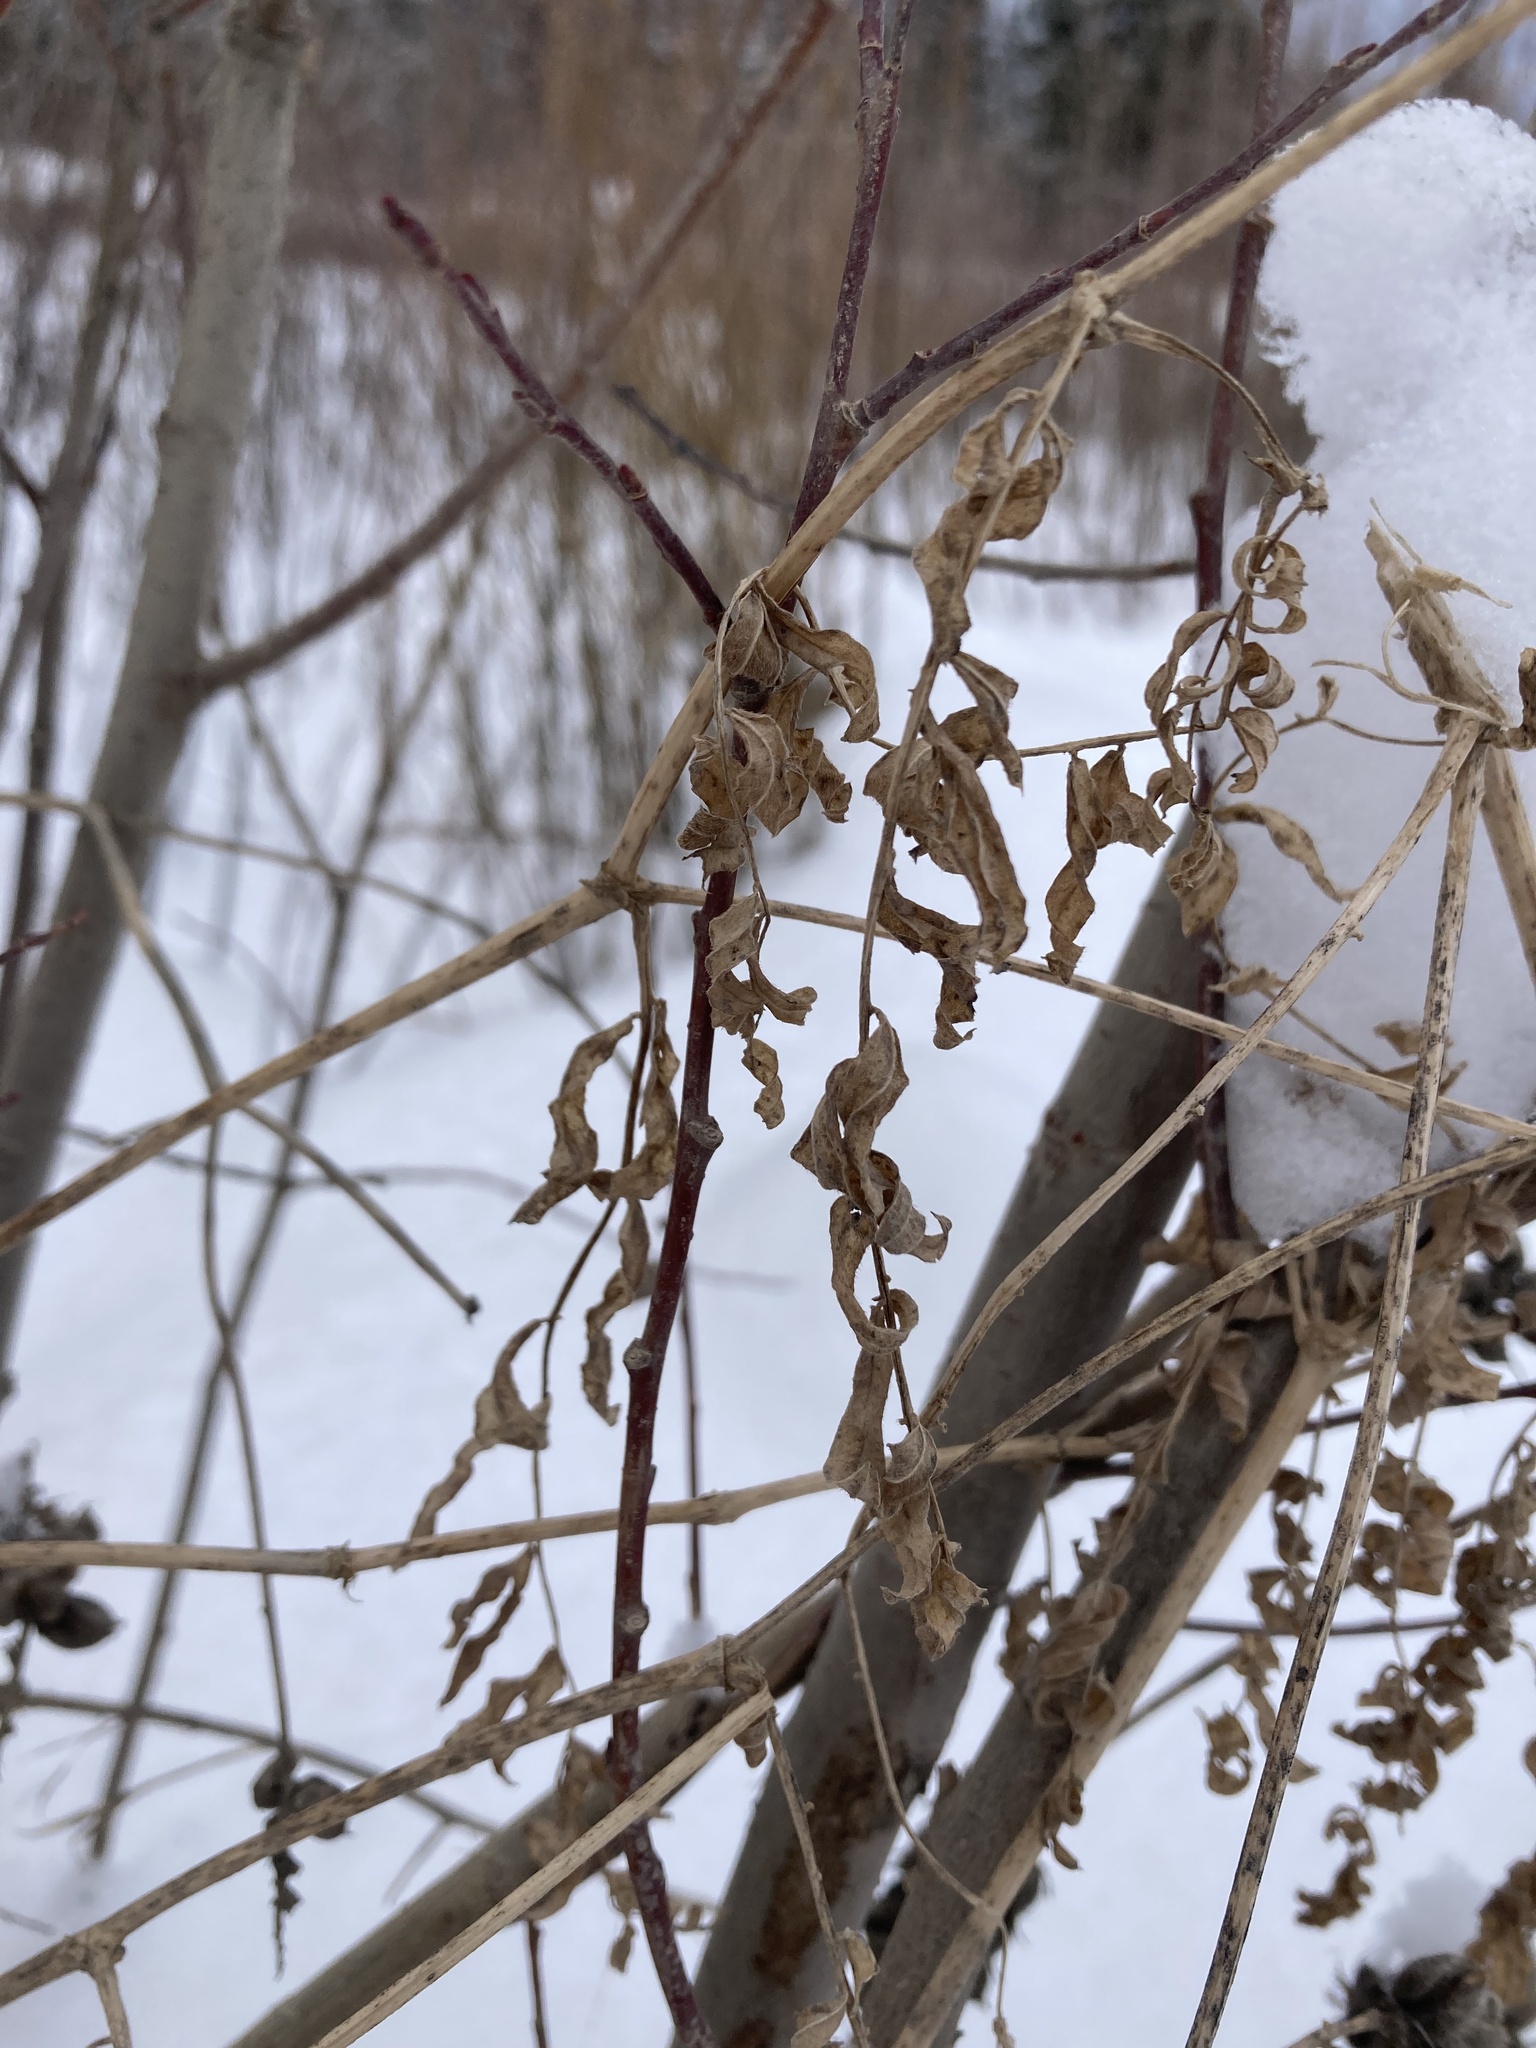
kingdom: Plantae
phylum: Tracheophyta
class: Magnoliopsida
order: Fabales
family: Fabaceae
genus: Astragalus
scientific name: Astragalus cicer
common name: Chick-pea milk-vetch
